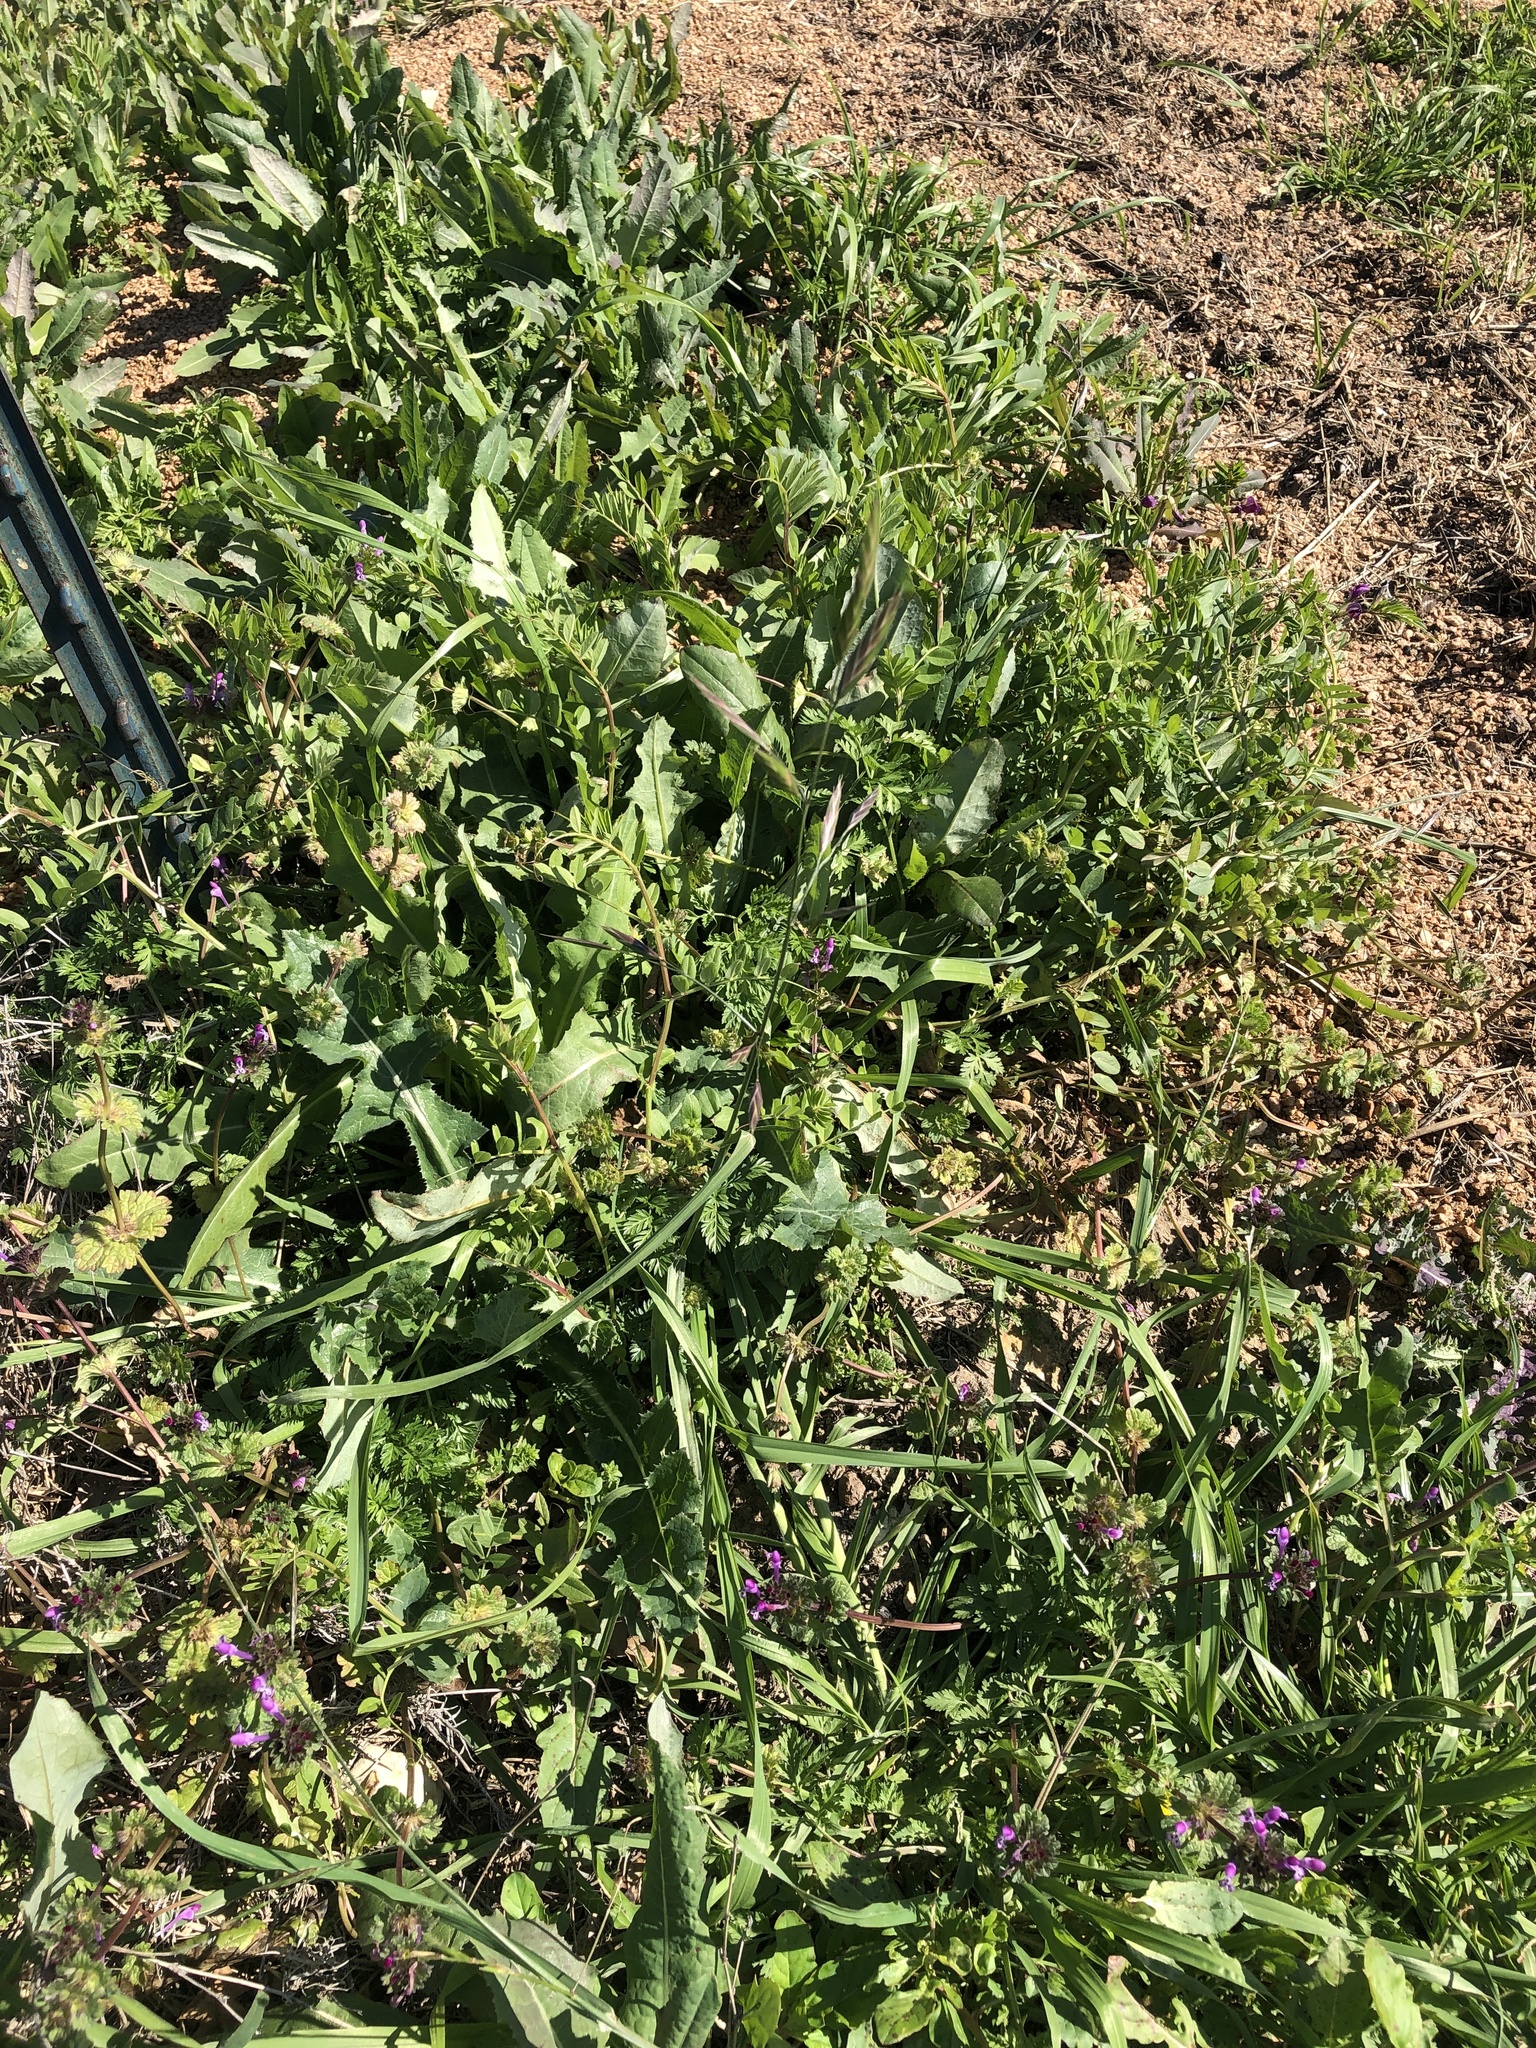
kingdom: Plantae
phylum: Tracheophyta
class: Liliopsida
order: Poales
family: Poaceae
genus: Bromus
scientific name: Bromus catharticus
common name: Rescuegrass
